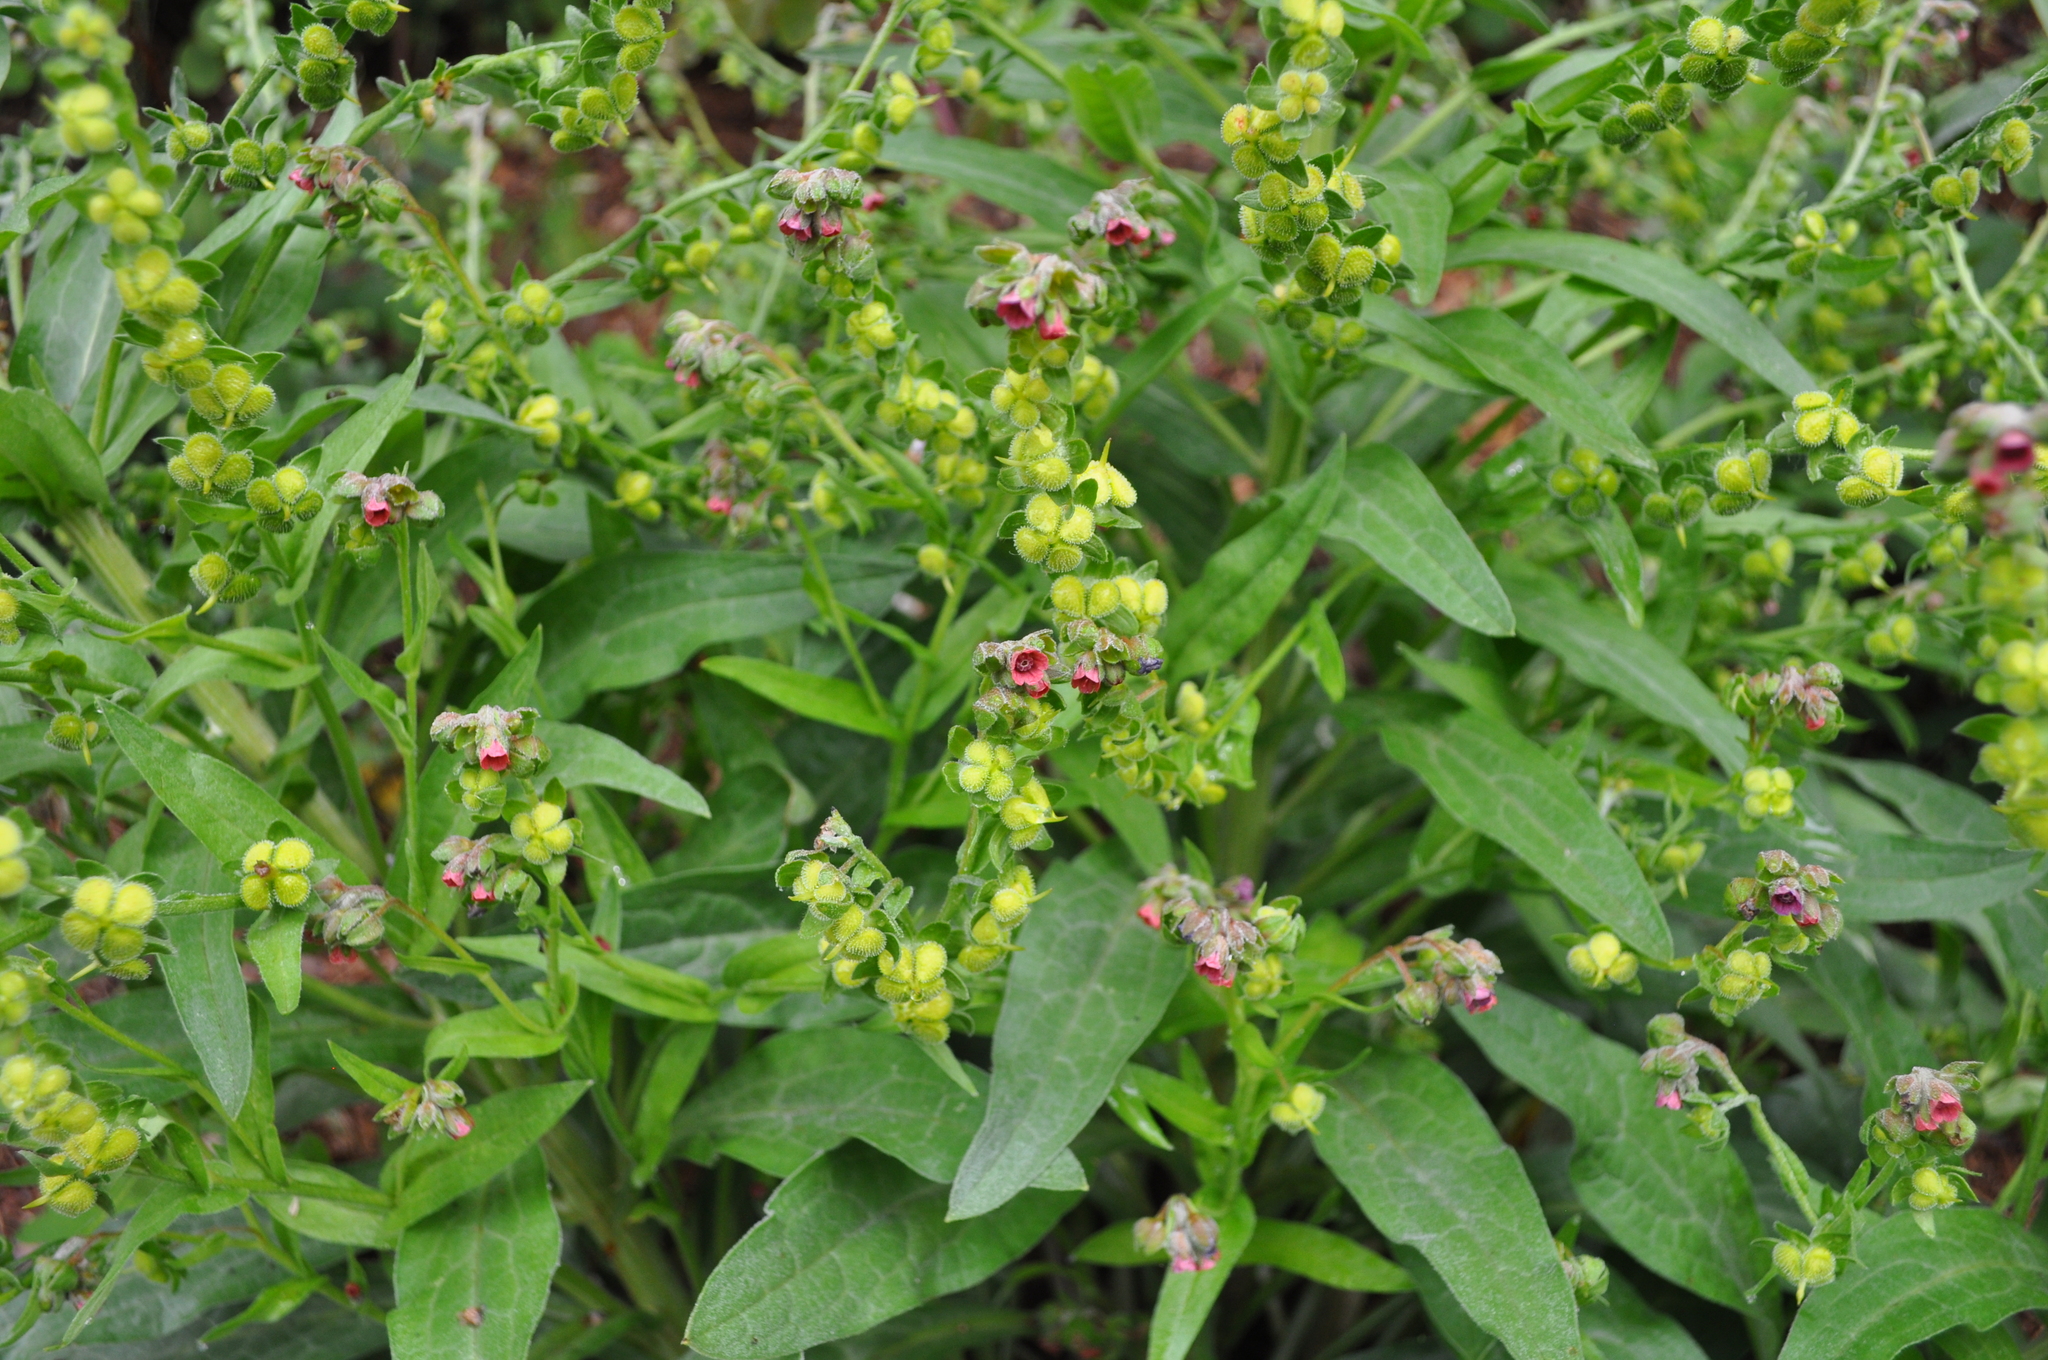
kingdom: Plantae
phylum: Tracheophyta
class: Magnoliopsida
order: Boraginales
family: Boraginaceae
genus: Cynoglossum
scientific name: Cynoglossum officinale
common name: Hound's-tongue
